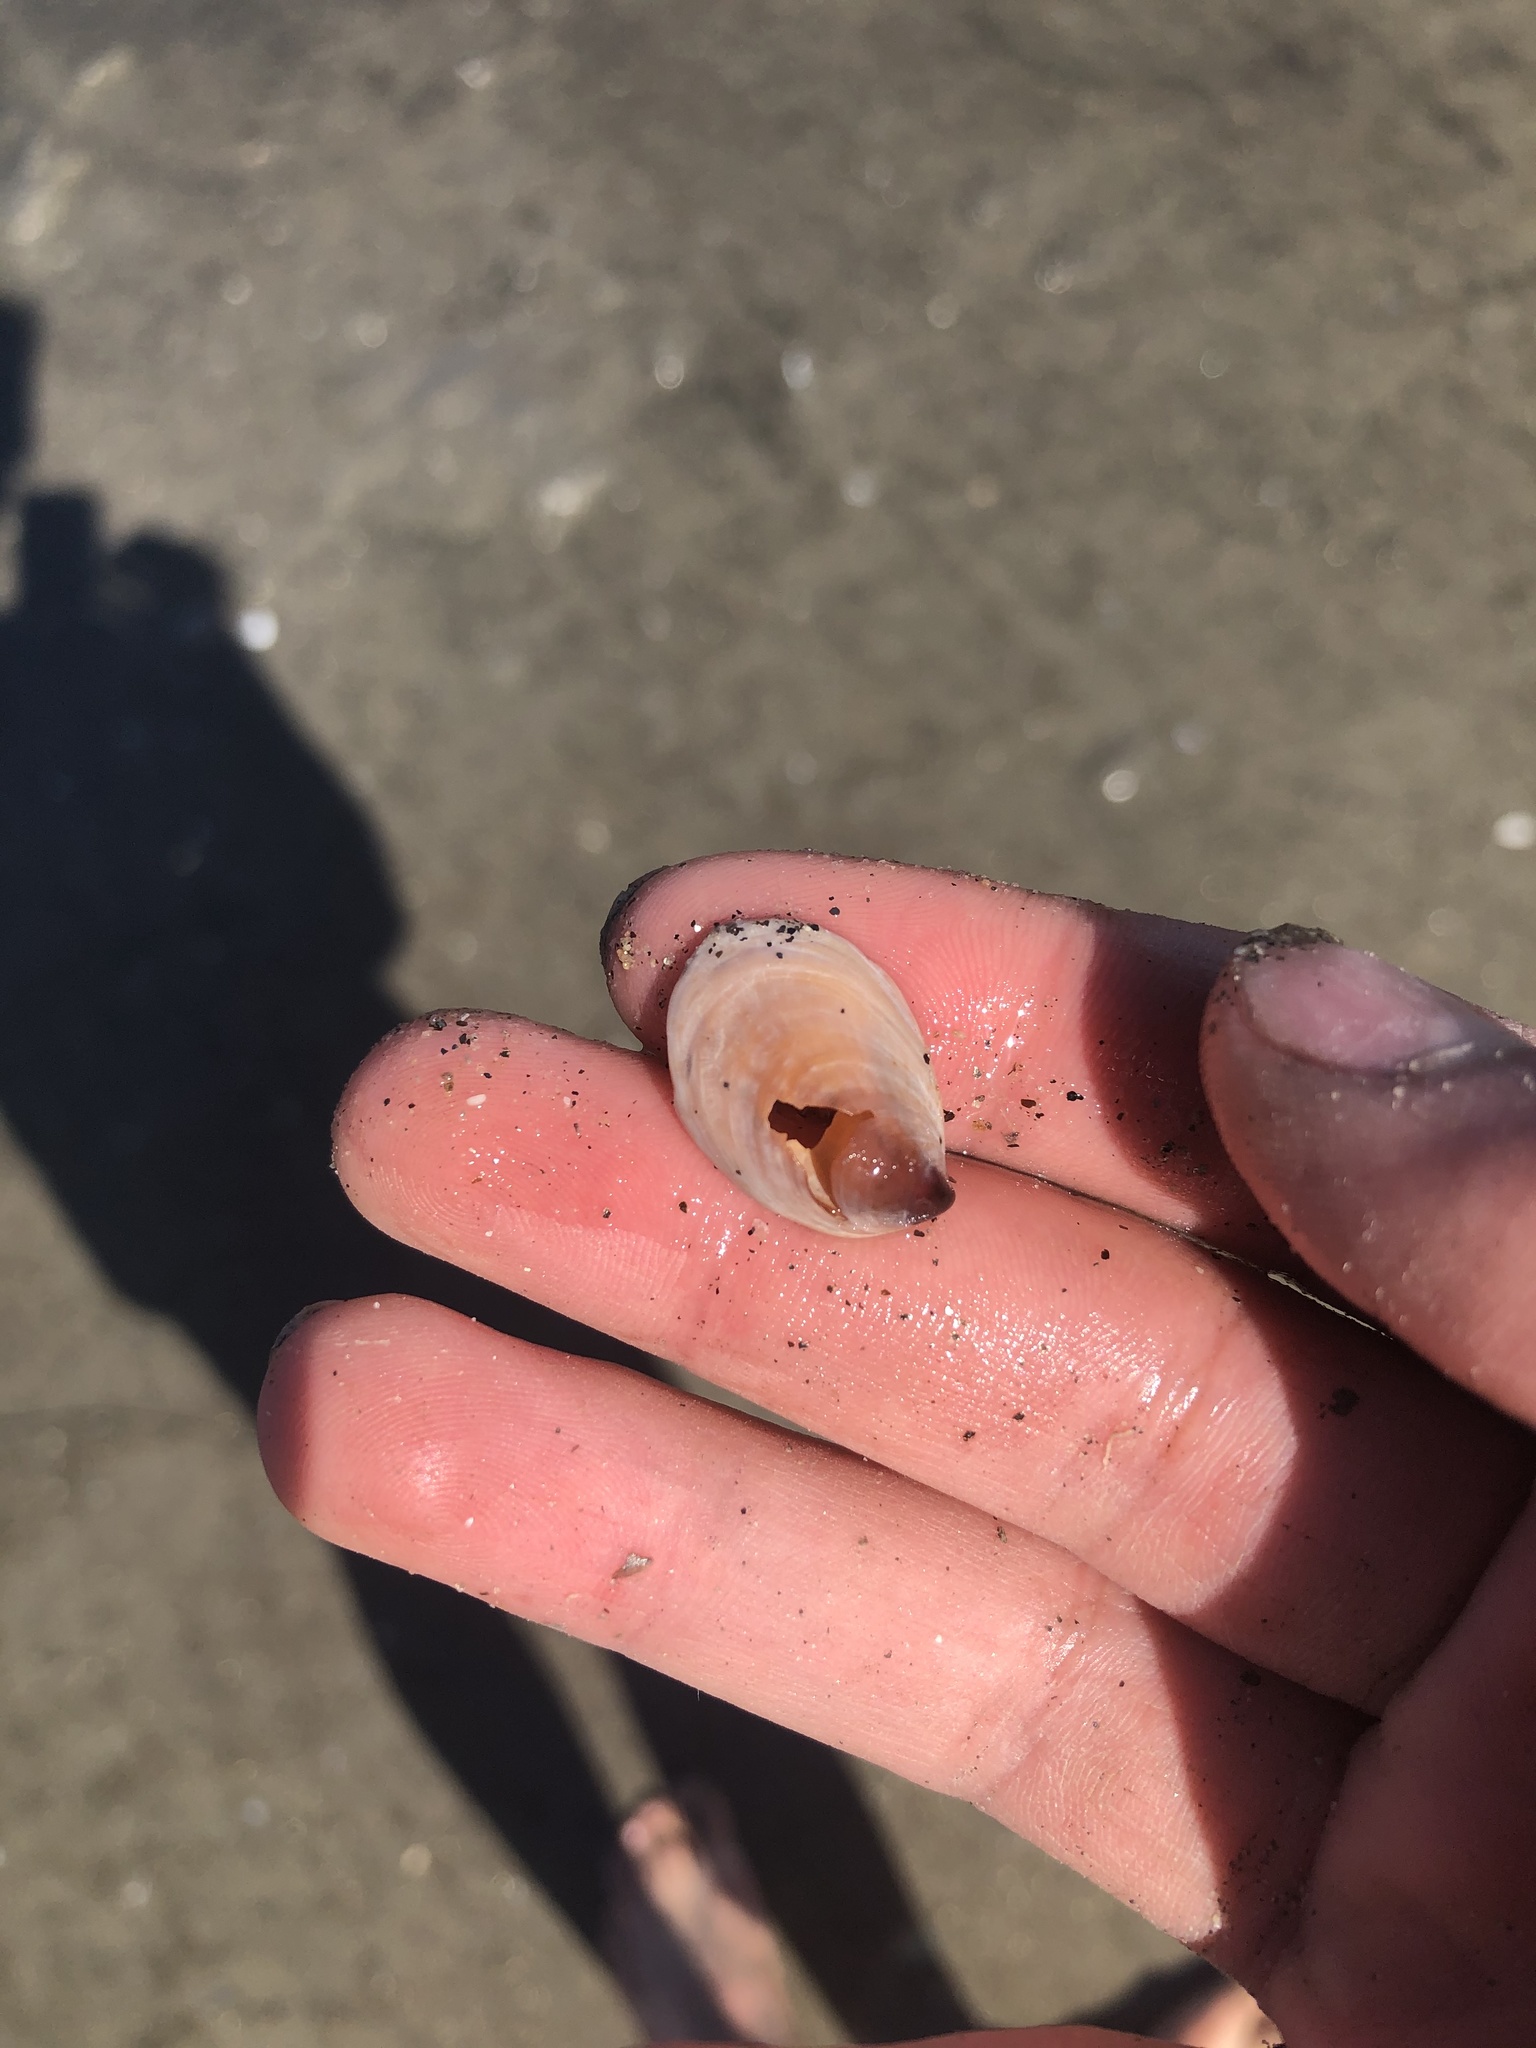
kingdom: Animalia
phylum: Mollusca
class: Gastropoda
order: Littorinimorpha
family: Calyptraeidae
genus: Crepidula
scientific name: Crepidula onyx
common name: Onyx slippersnail
